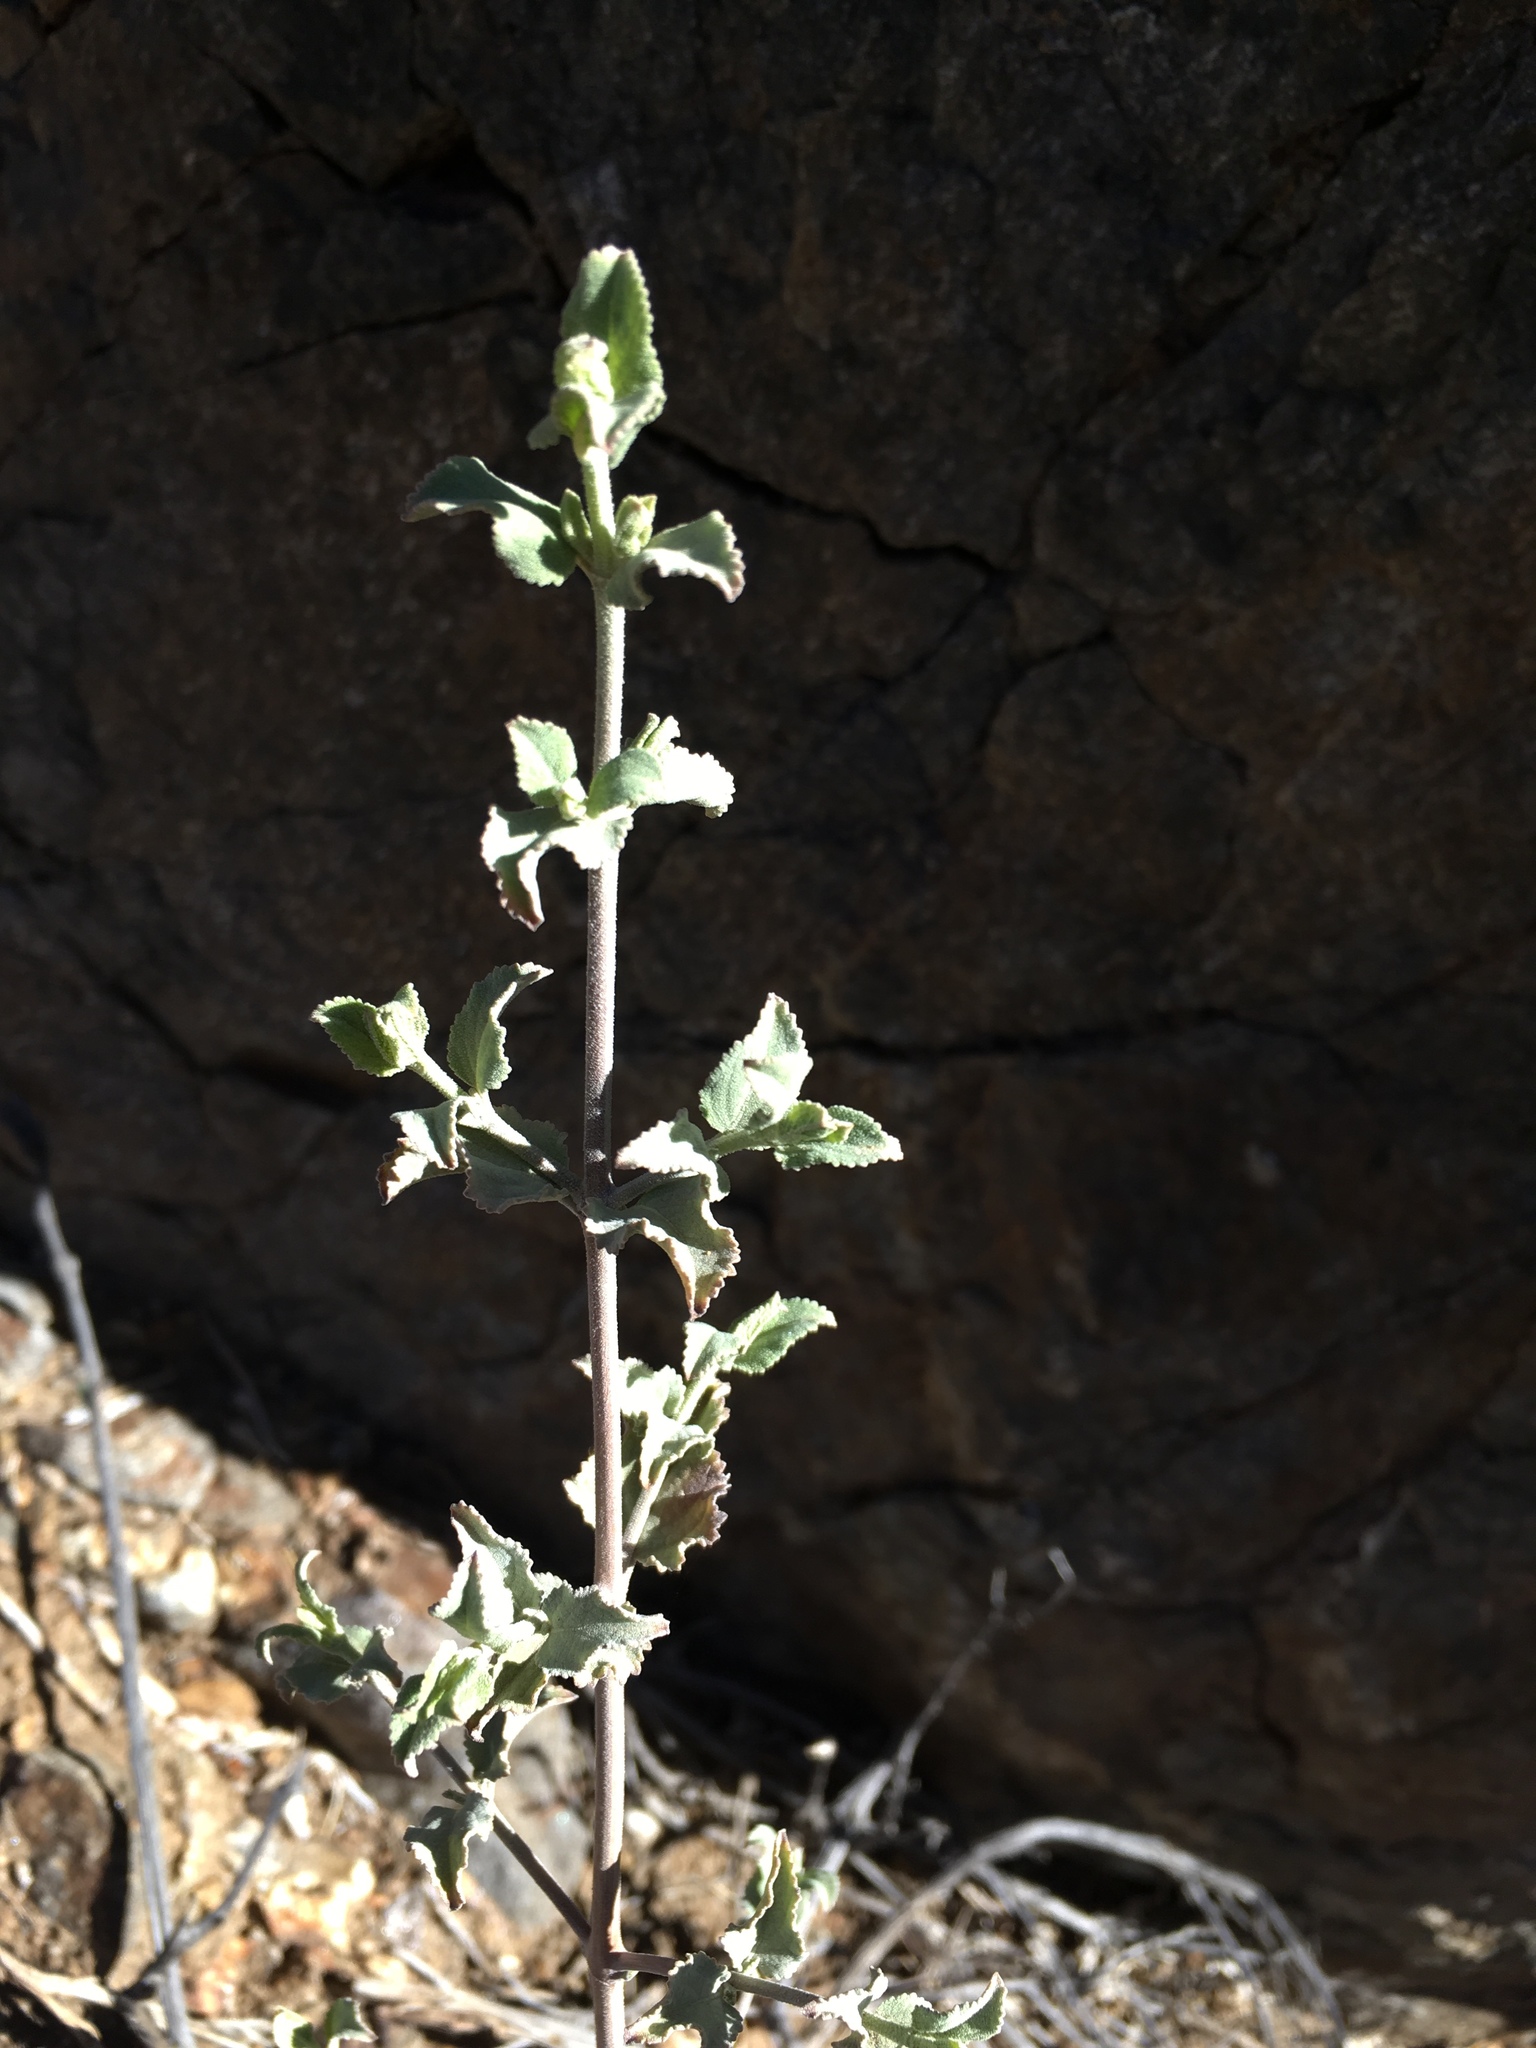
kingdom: Plantae
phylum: Tracheophyta
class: Magnoliopsida
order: Lamiales
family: Lamiaceae
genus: Condea
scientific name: Condea emoryi
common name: Chia
